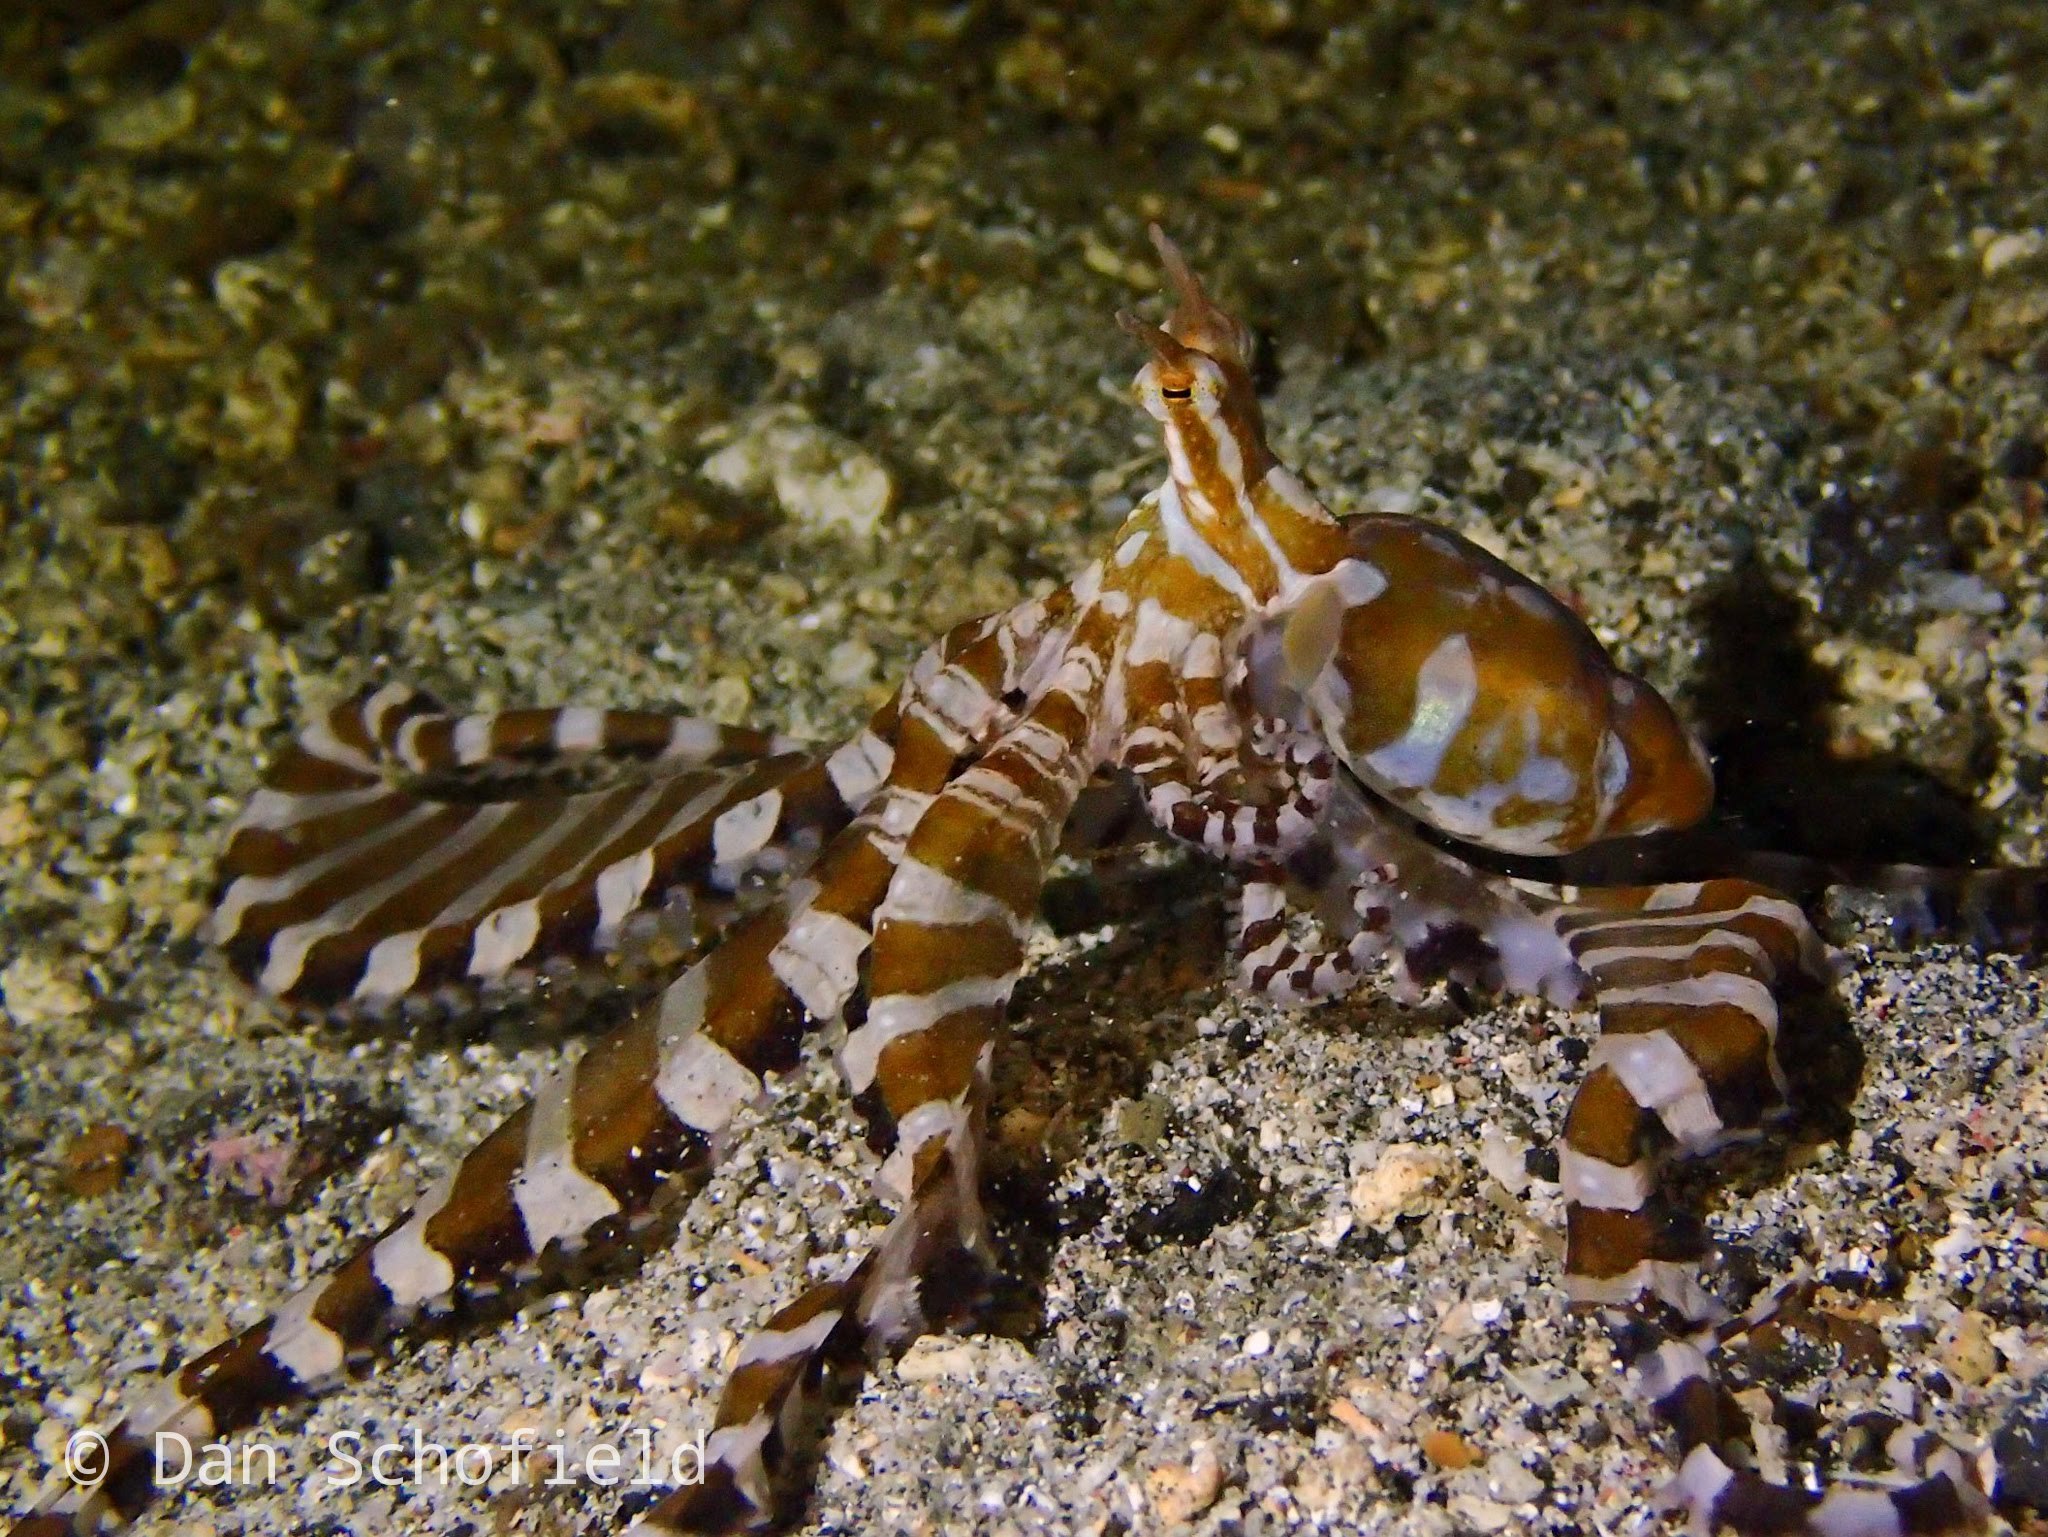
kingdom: Animalia
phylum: Mollusca
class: Cephalopoda
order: Octopoda
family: Octopodidae
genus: Wunderpus
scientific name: Wunderpus photogenicus
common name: Wunderpus
